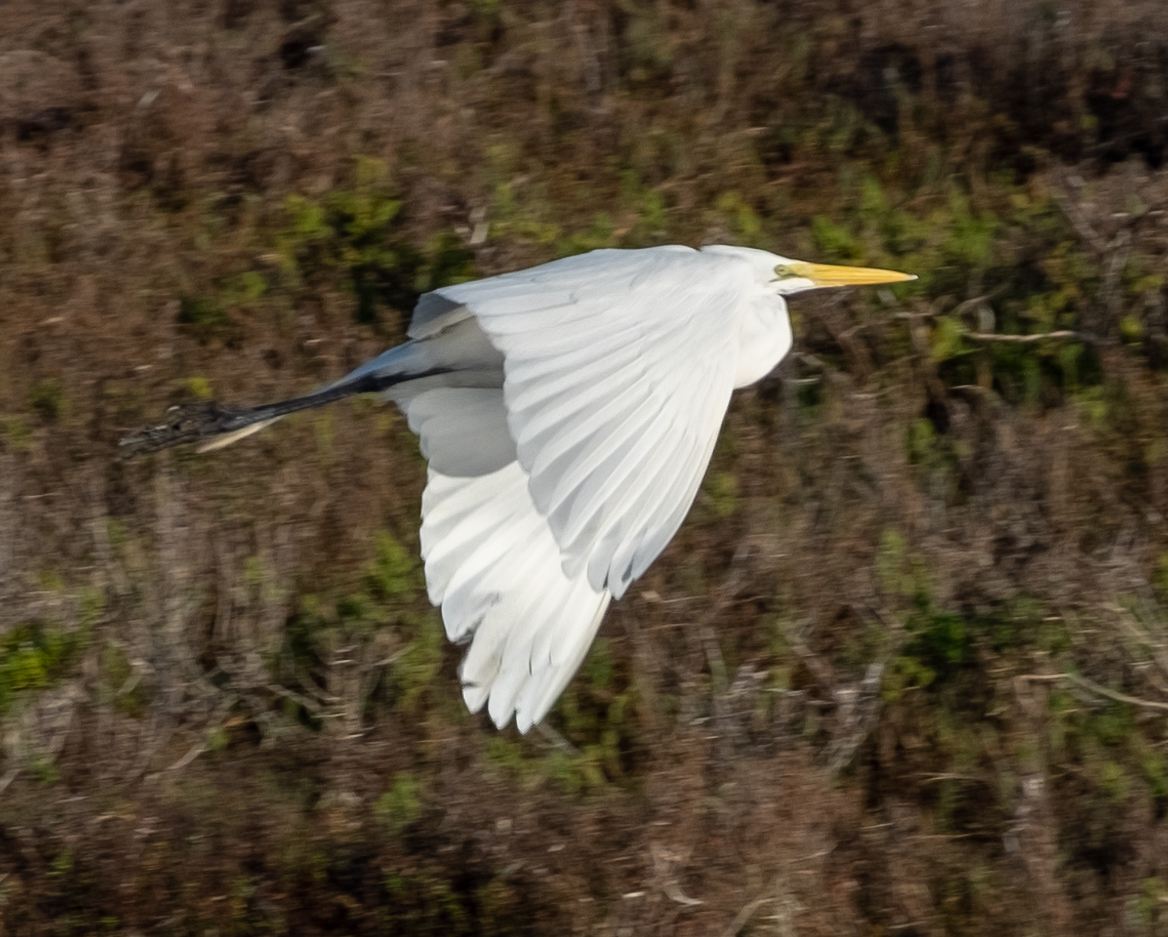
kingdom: Animalia
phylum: Chordata
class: Aves
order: Pelecaniformes
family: Ardeidae
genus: Ardea
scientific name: Ardea alba
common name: Great egret
